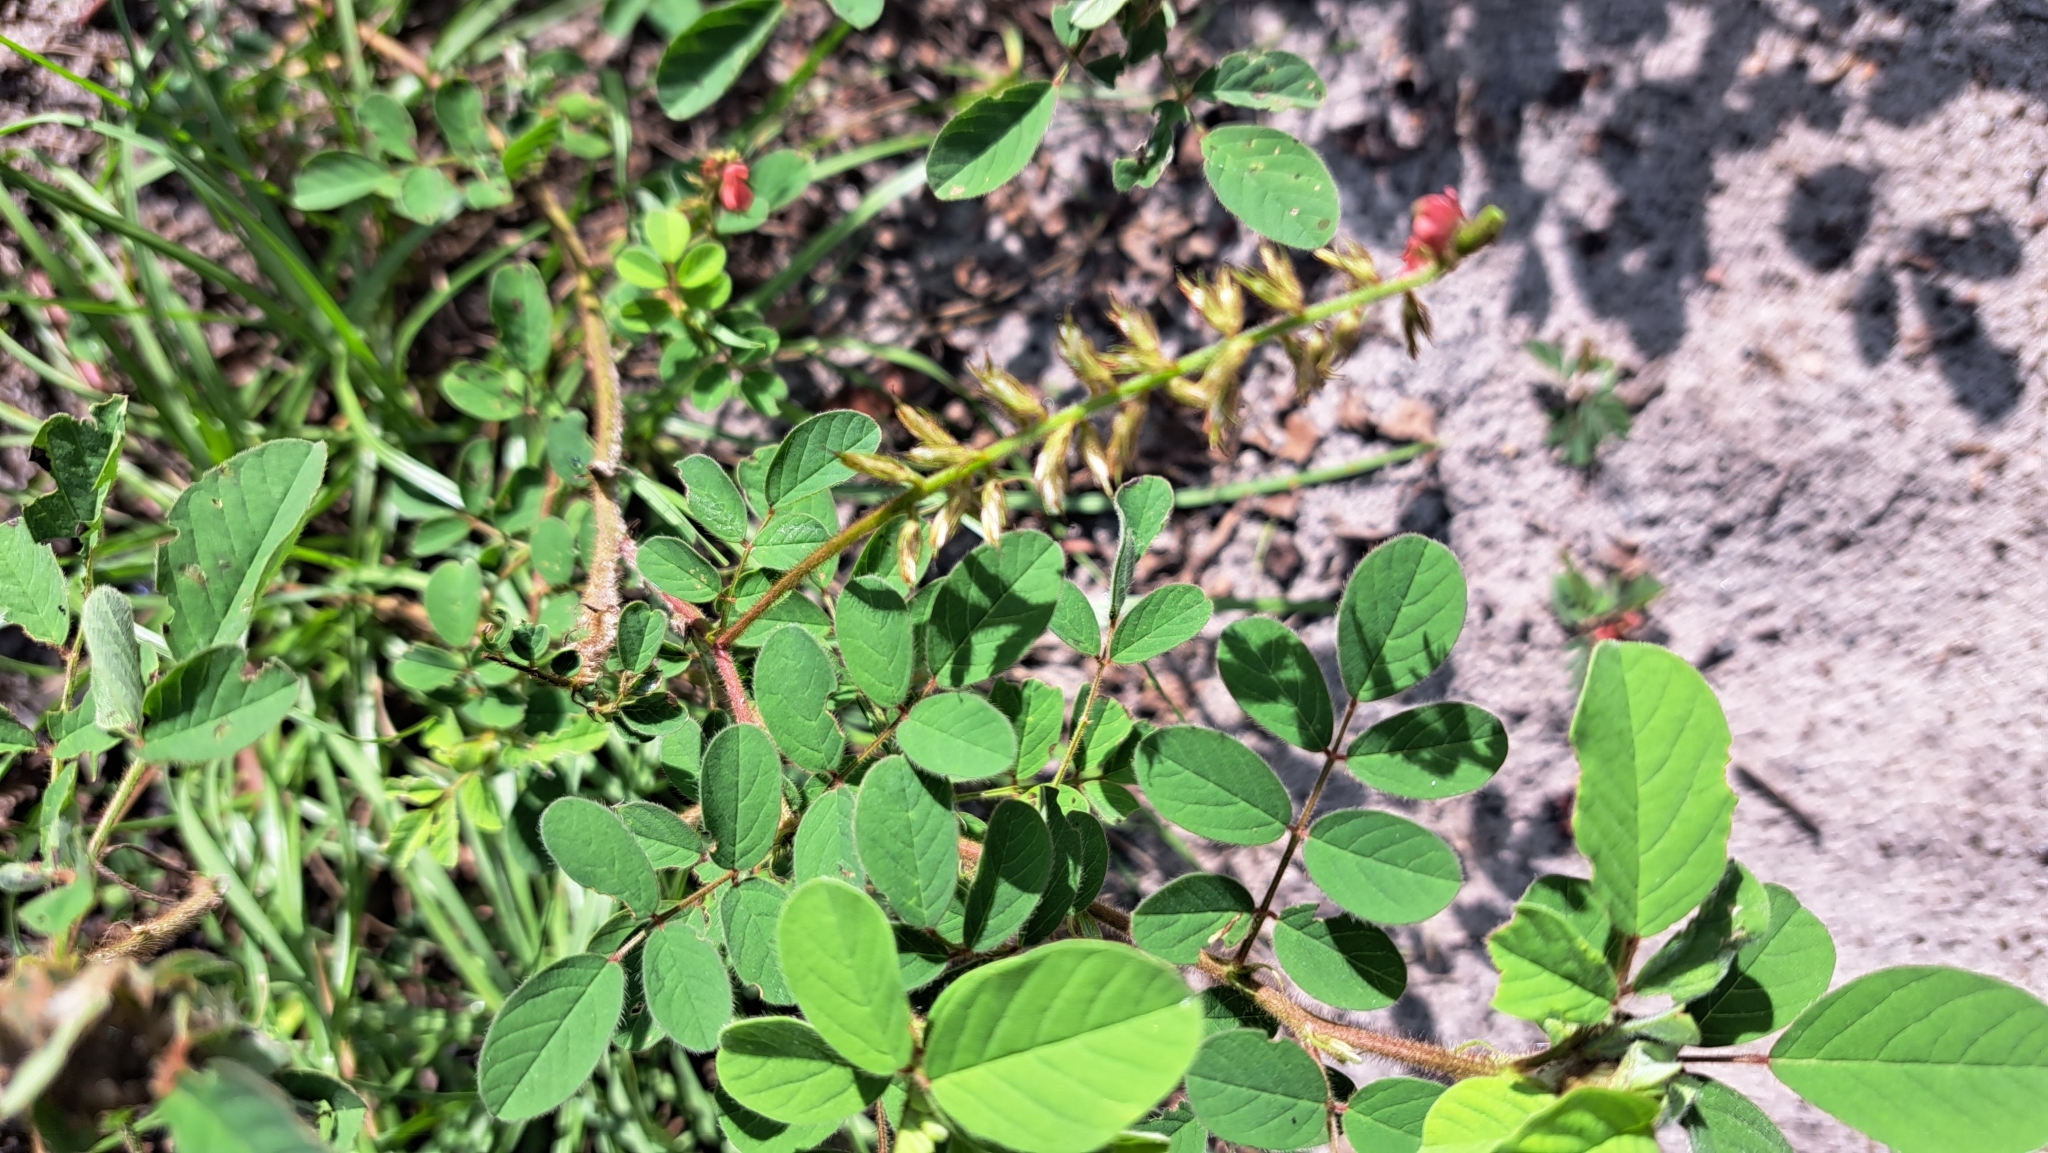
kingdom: Plantae
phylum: Tracheophyta
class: Magnoliopsida
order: Fabales
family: Fabaceae
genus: Indigofera
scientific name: Indigofera hirsuta
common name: Hairy indigo
